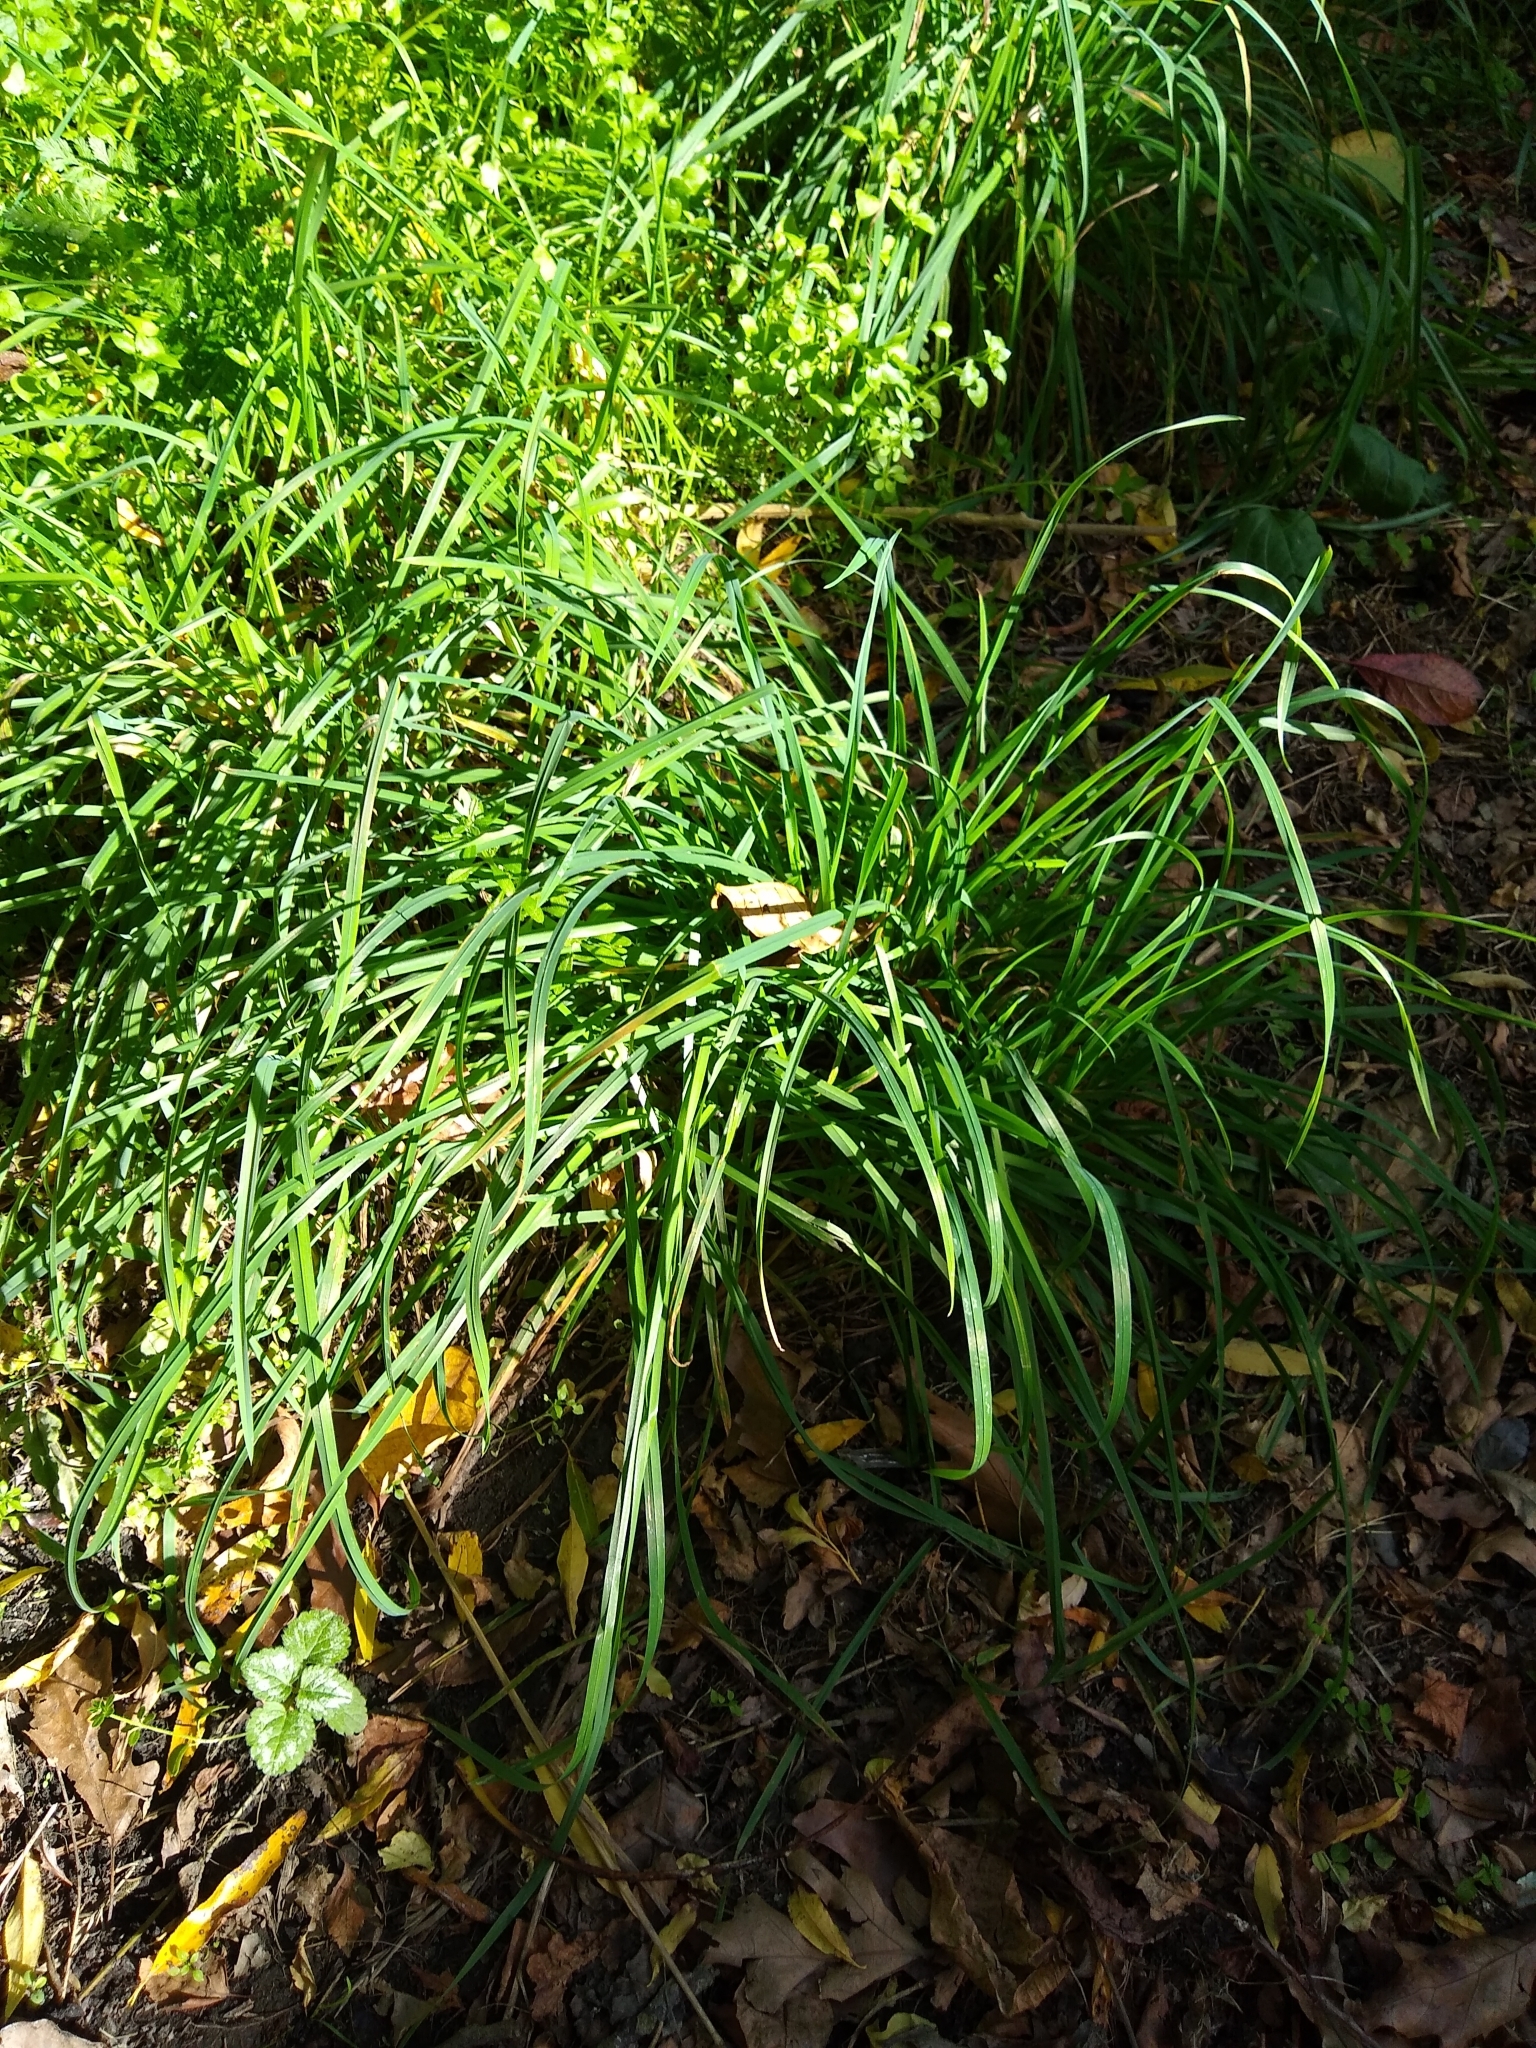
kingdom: Plantae
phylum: Tracheophyta
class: Liliopsida
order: Poales
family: Poaceae
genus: Dactylis
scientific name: Dactylis glomerata
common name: Orchardgrass
